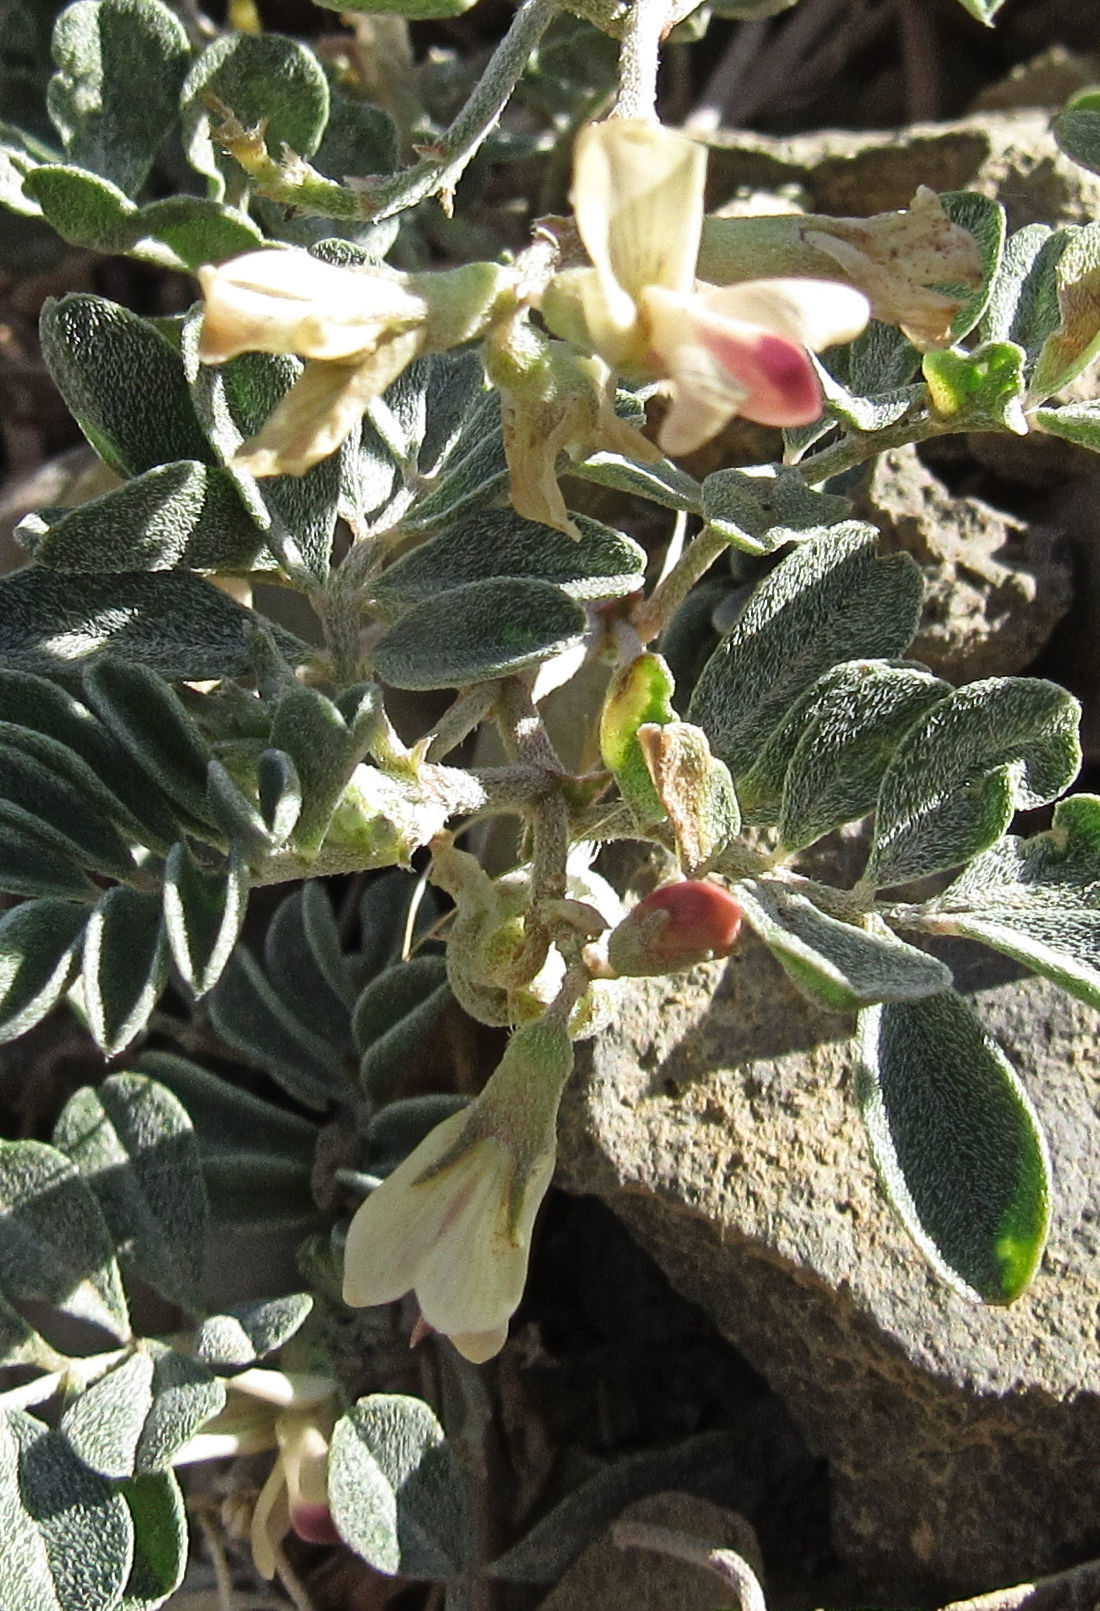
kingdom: Plantae
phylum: Tracheophyta
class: Magnoliopsida
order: Fabales
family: Fabaceae
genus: Astragalus
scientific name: Astragalus amblytropis
